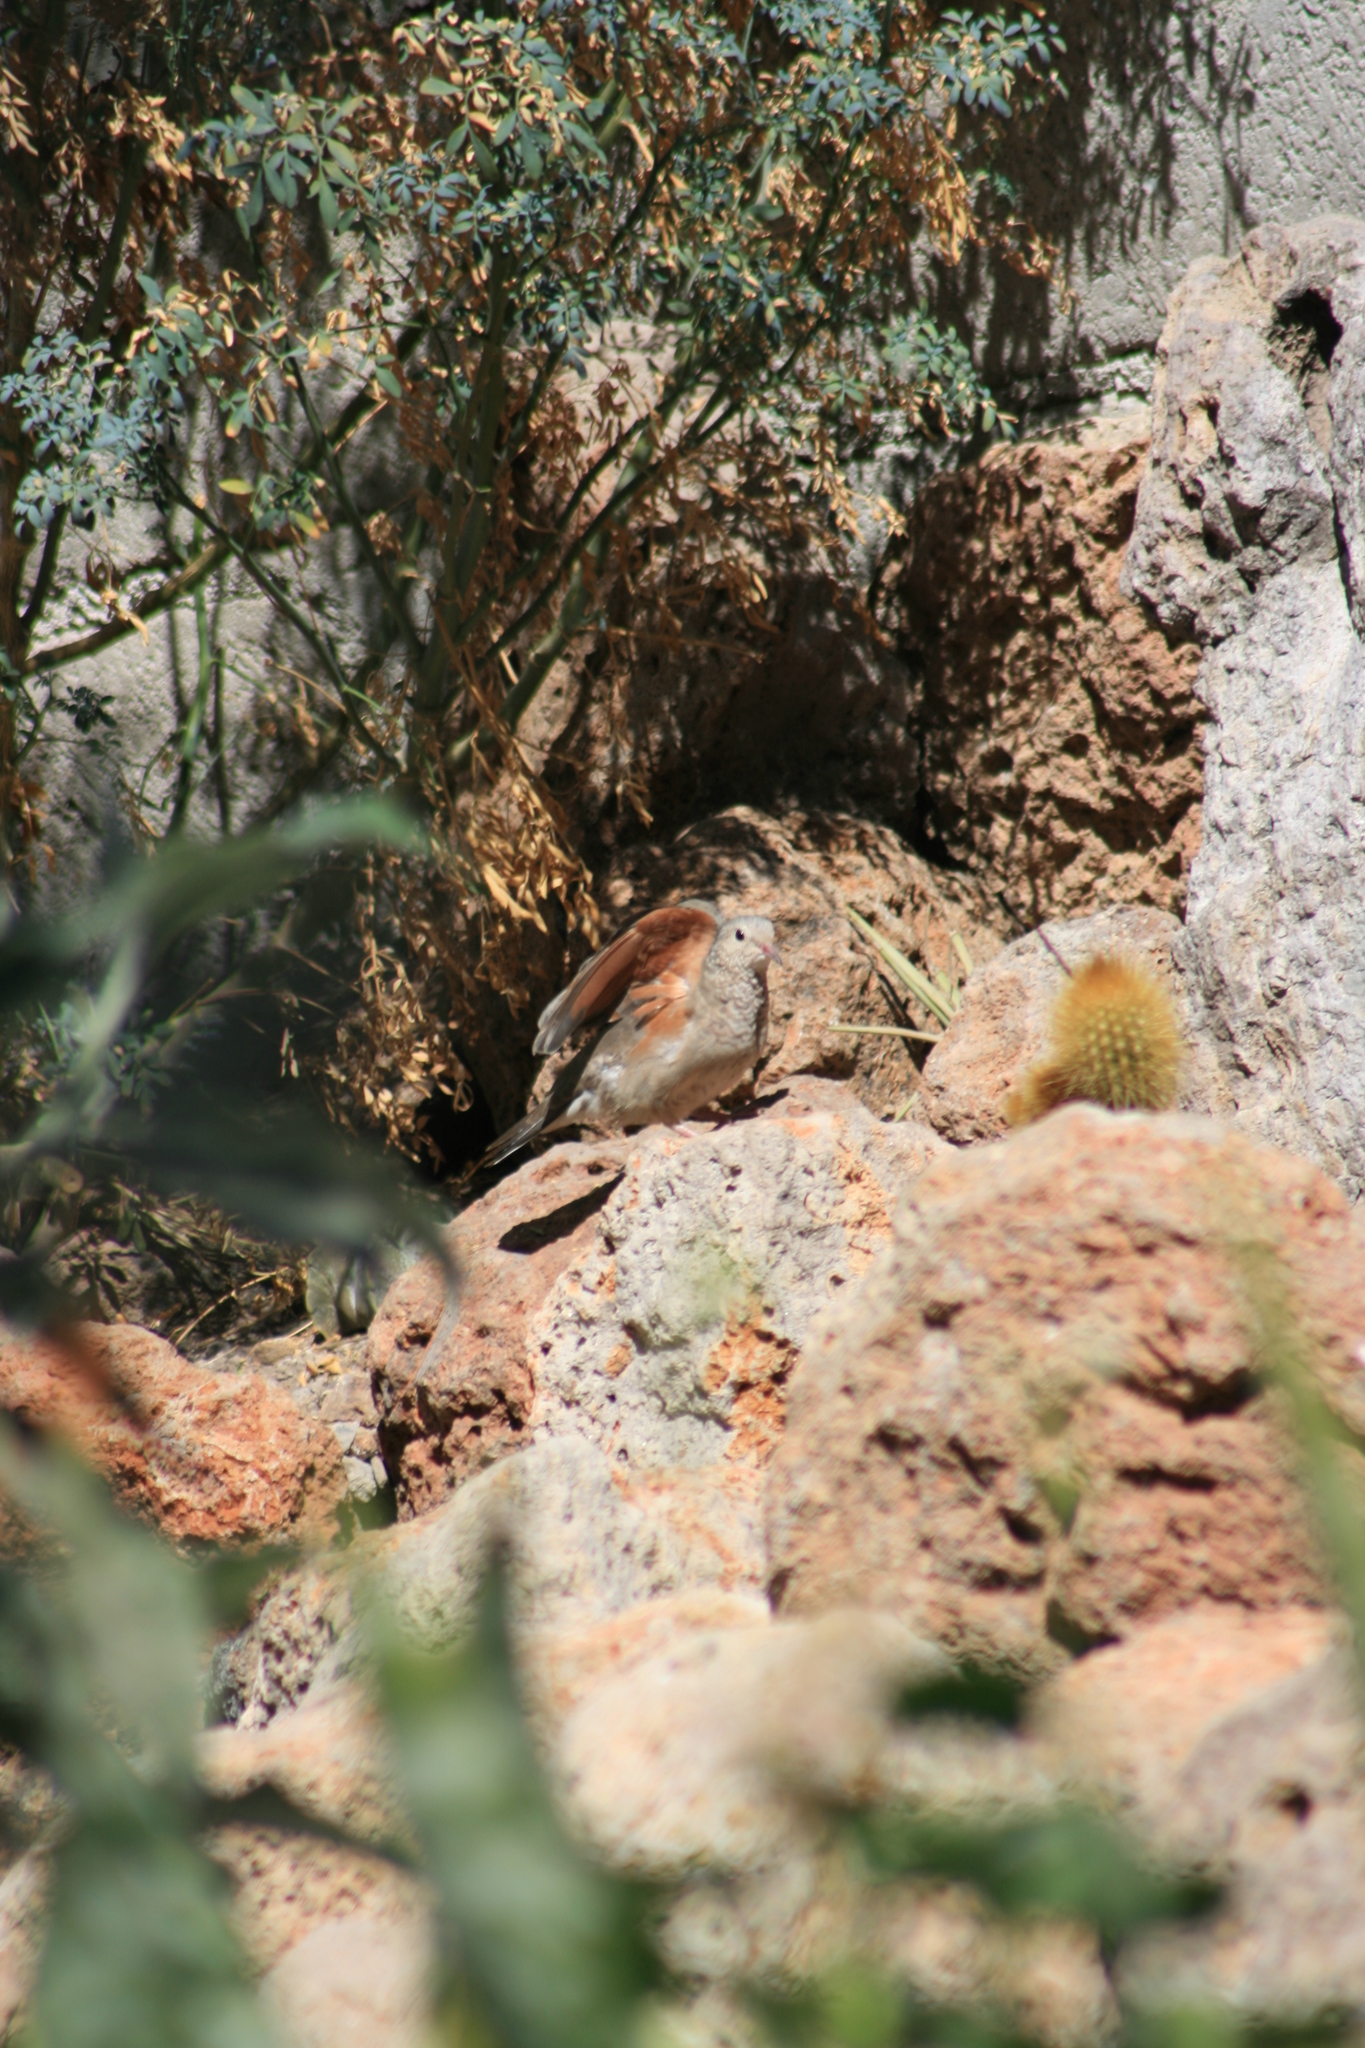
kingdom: Animalia
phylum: Chordata
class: Aves
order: Columbiformes
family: Columbidae
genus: Columbina
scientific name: Columbina passerina
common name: Common ground-dove
